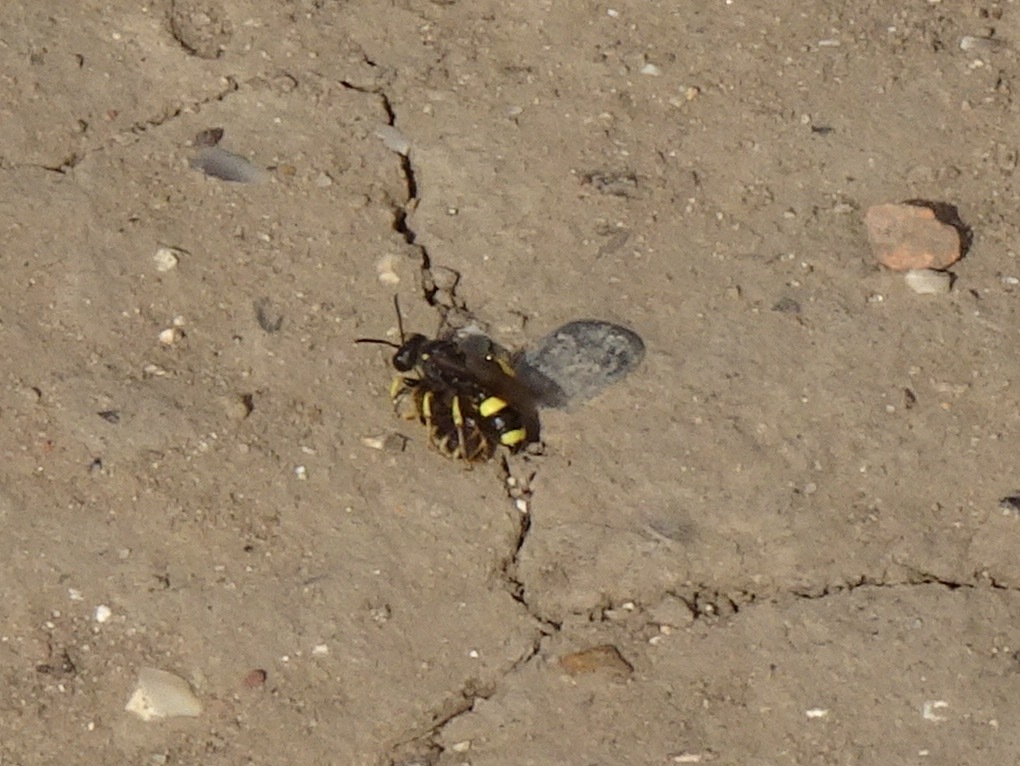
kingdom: Animalia
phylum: Arthropoda
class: Insecta
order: Hymenoptera
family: Crabronidae
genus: Cerceris
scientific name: Cerceris rybyensis
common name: Ornate tailed digger wasp
